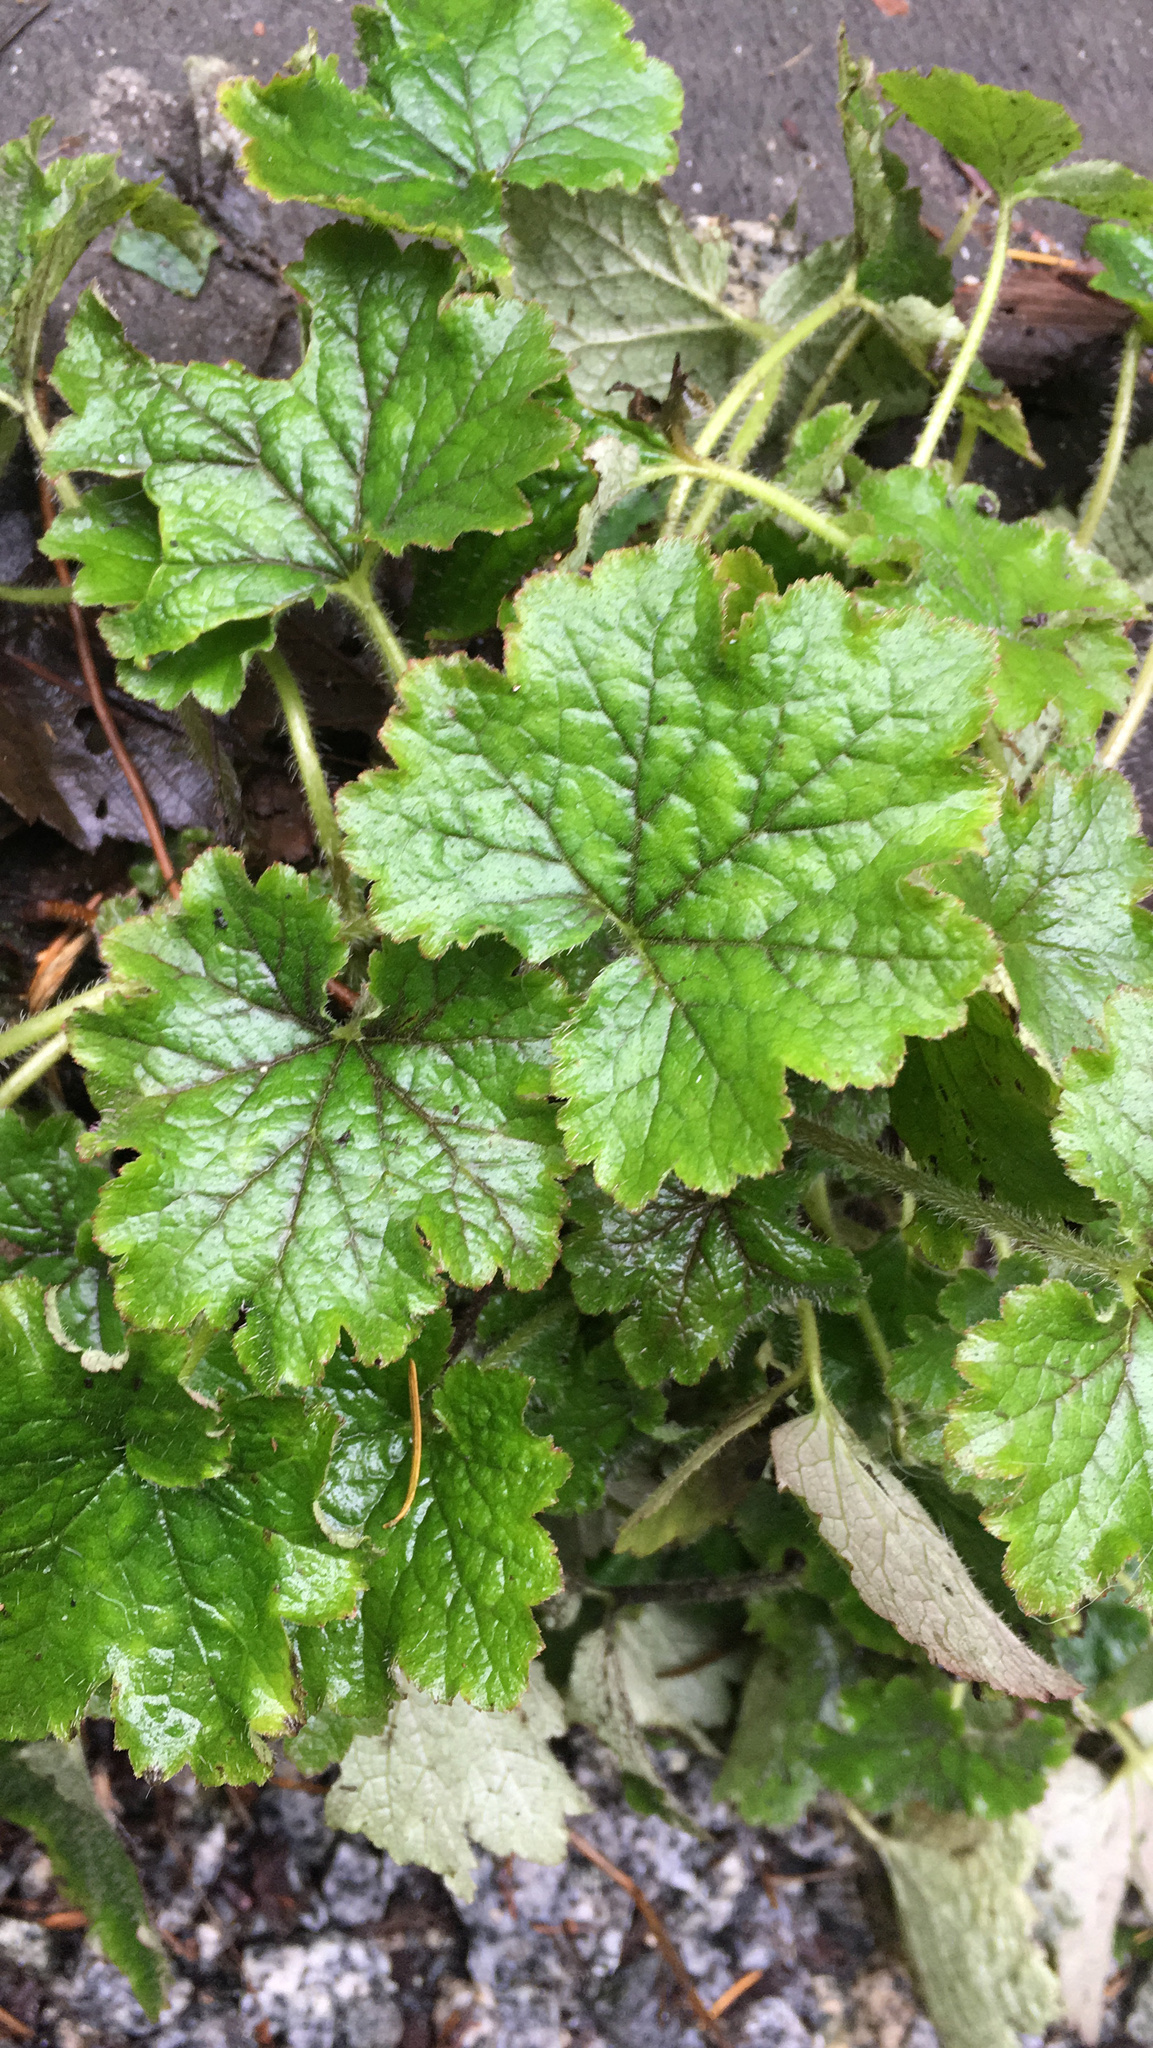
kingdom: Plantae
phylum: Tracheophyta
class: Magnoliopsida
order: Saxifragales
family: Saxifragaceae
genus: Tellima
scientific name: Tellima grandiflora
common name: Fringecups
